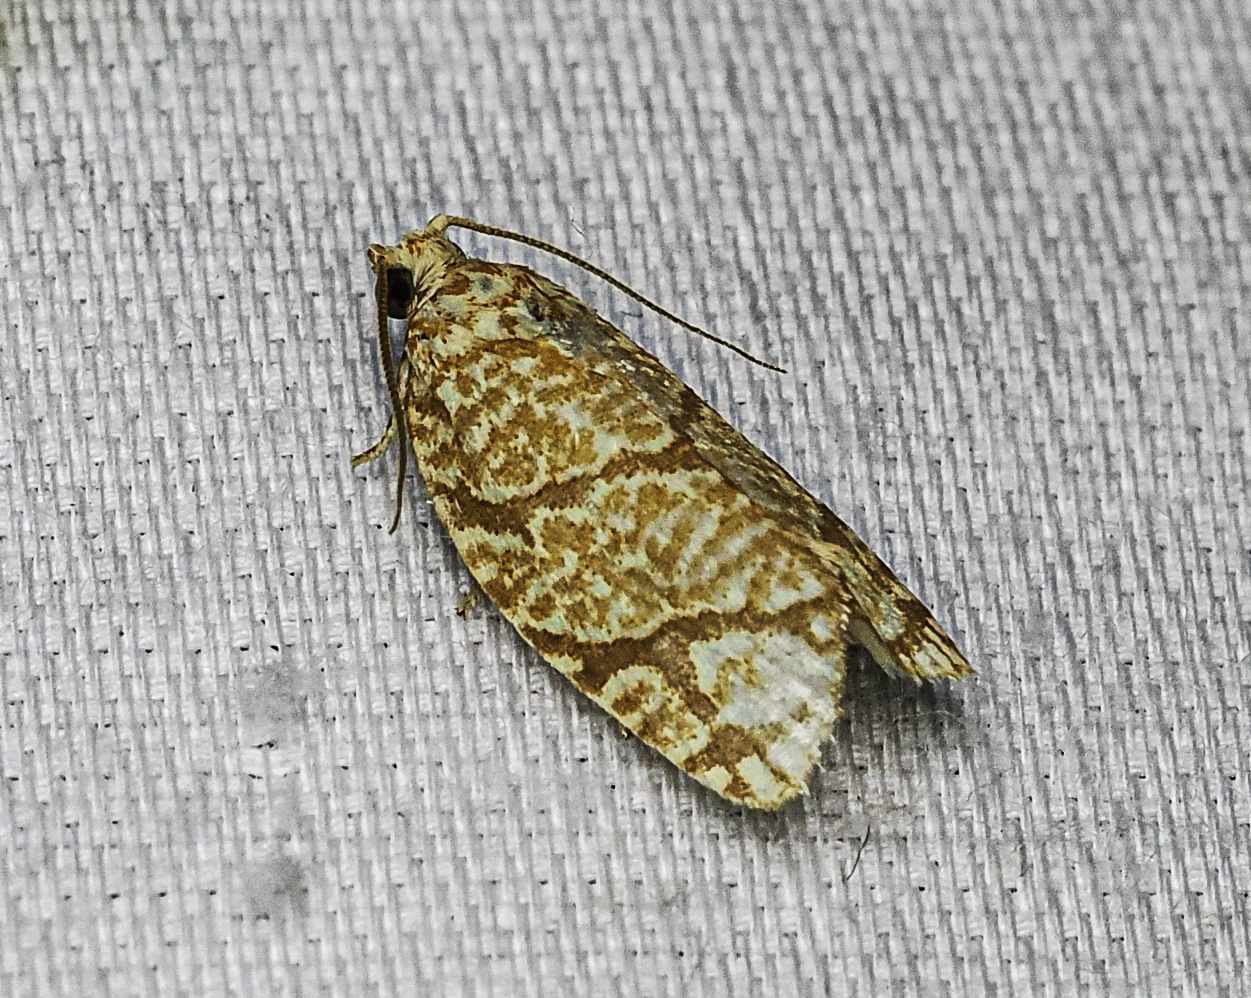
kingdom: Animalia
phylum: Arthropoda
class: Insecta
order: Lepidoptera
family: Tortricidae
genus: Argyrotaenia
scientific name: Argyrotaenia quercifoliana
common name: Yellow-winged oak leafroller moth
